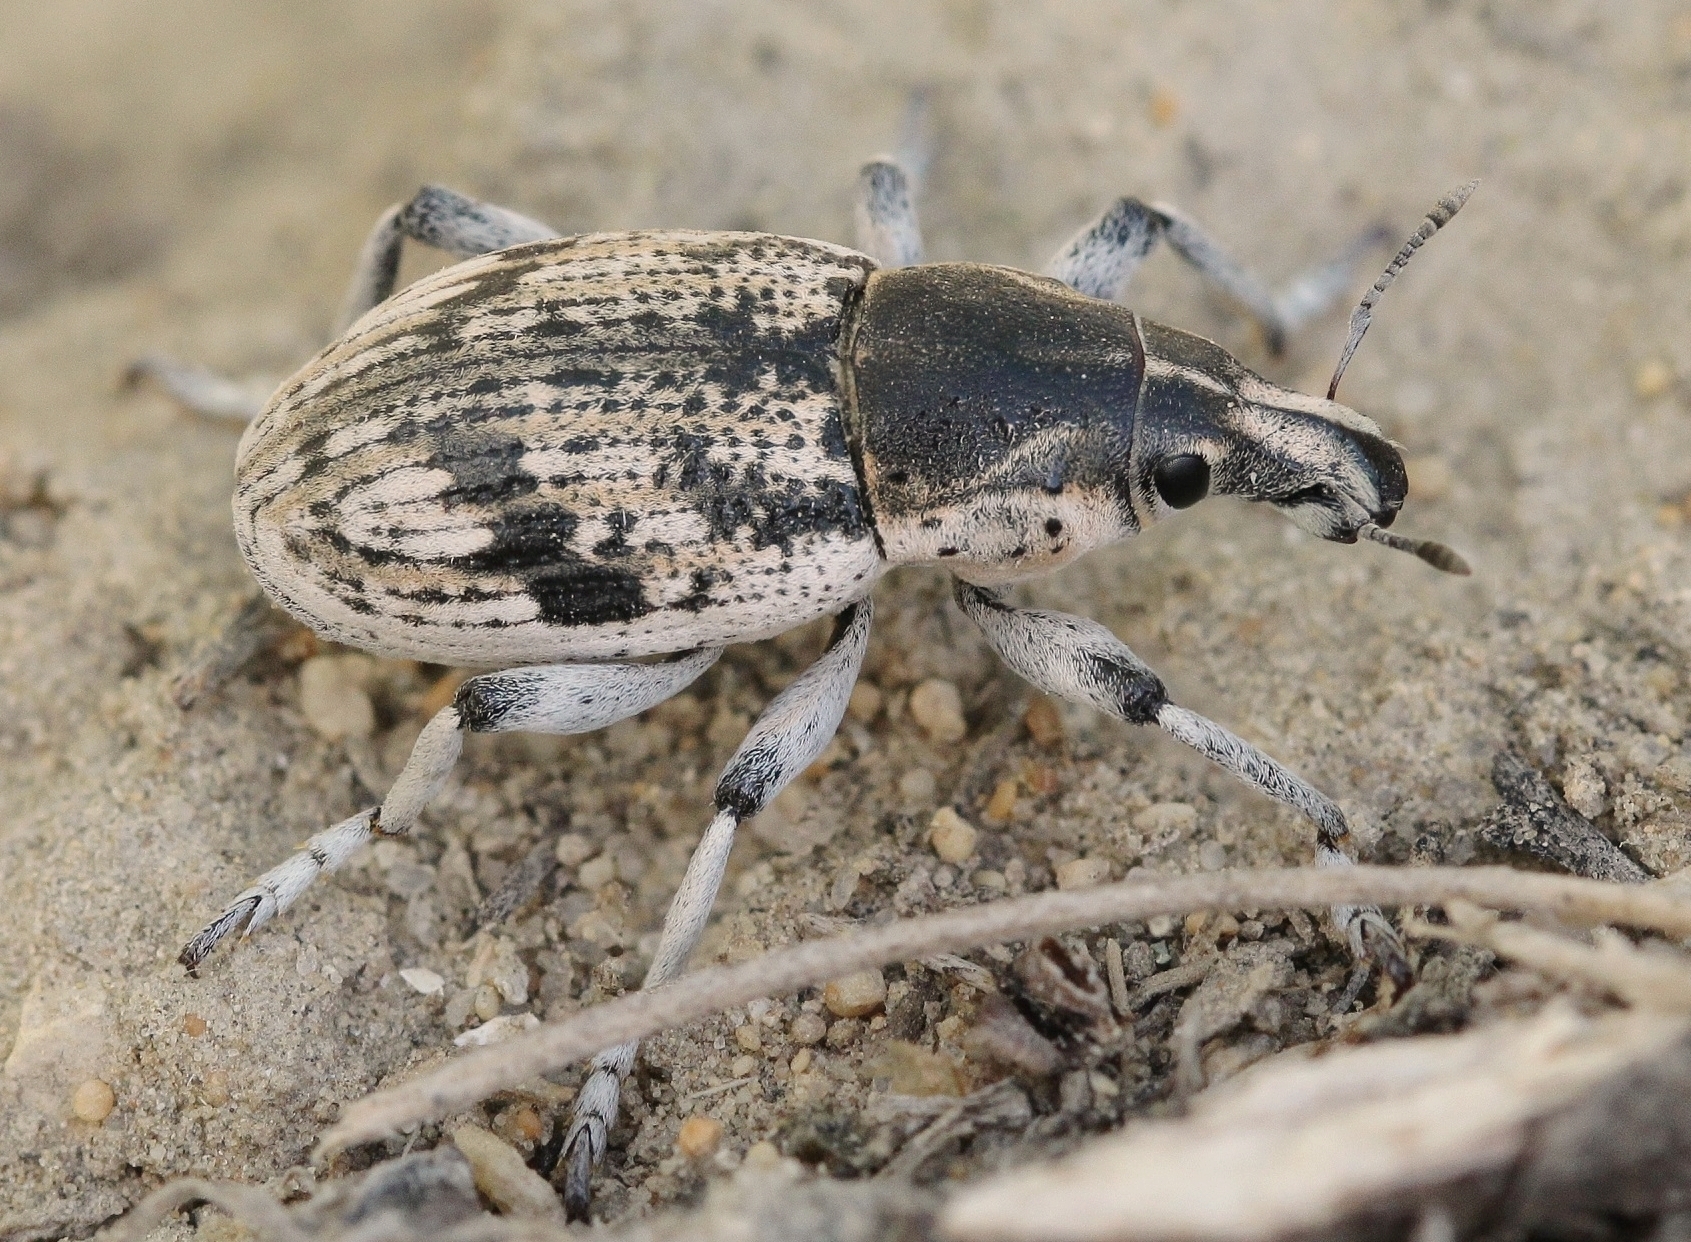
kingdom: Animalia
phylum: Arthropoda
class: Insecta
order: Coleoptera
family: Curculionidae
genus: Cleonis
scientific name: Cleonis granosa
